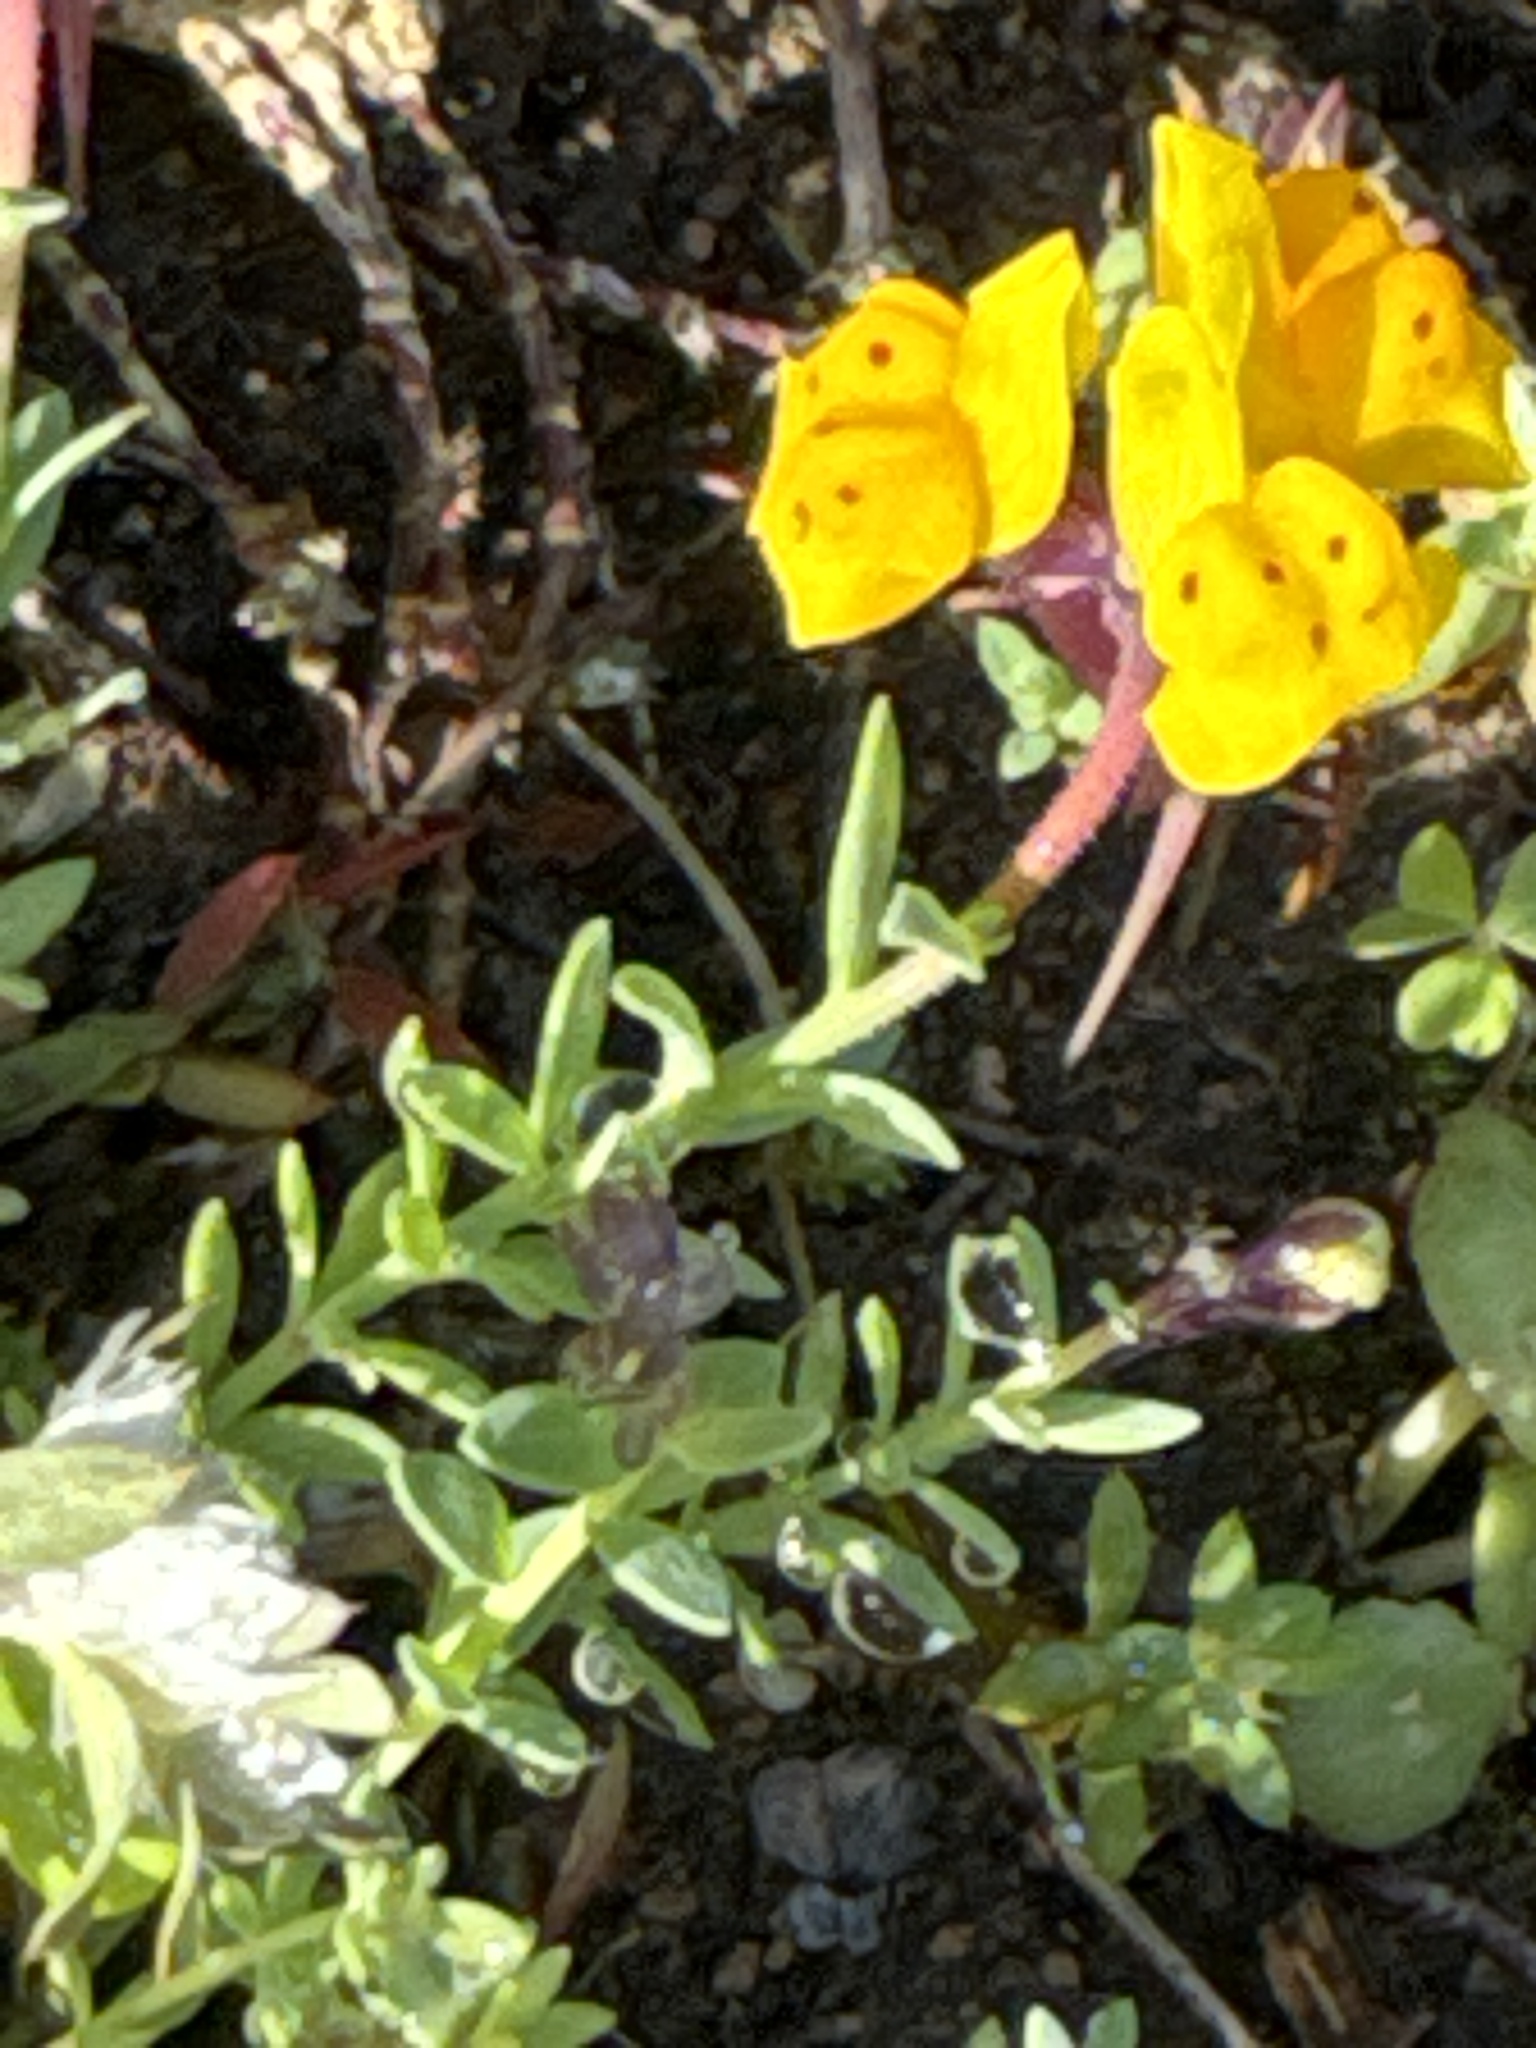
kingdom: Plantae
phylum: Tracheophyta
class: Magnoliopsida
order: Lamiales
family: Plantaginaceae
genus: Linaria
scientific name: Linaria amethystea
